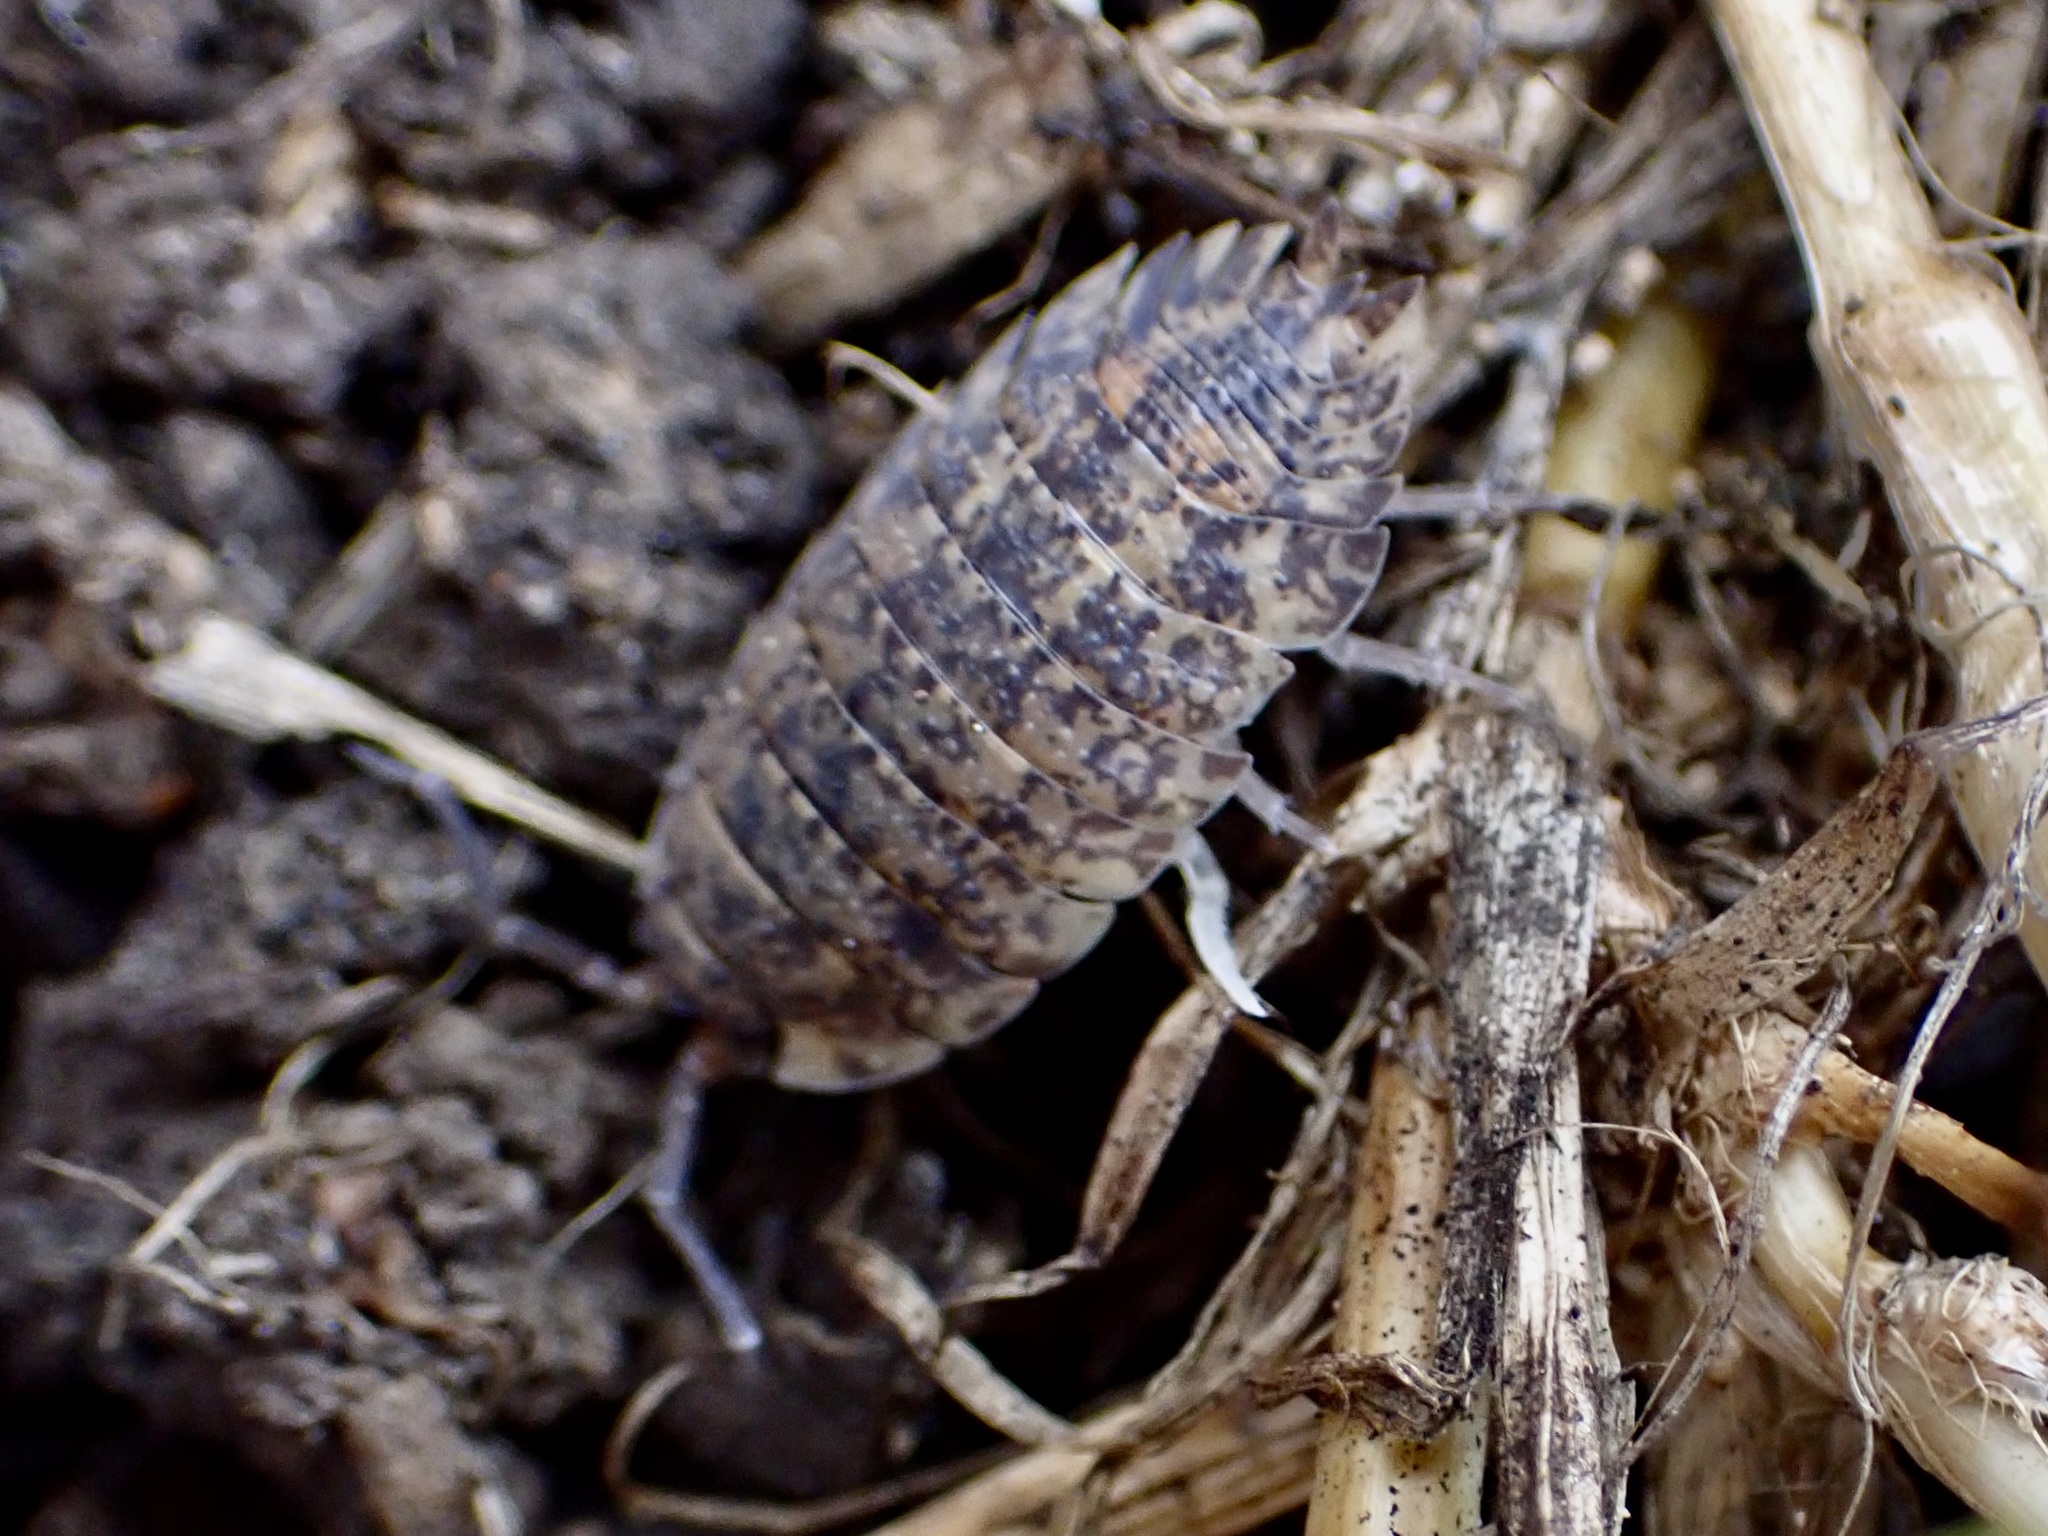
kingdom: Animalia
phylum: Arthropoda
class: Malacostraca
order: Isopoda
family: Porcellionidae
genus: Porcellio
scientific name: Porcellio scaber
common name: Common rough woodlouse
